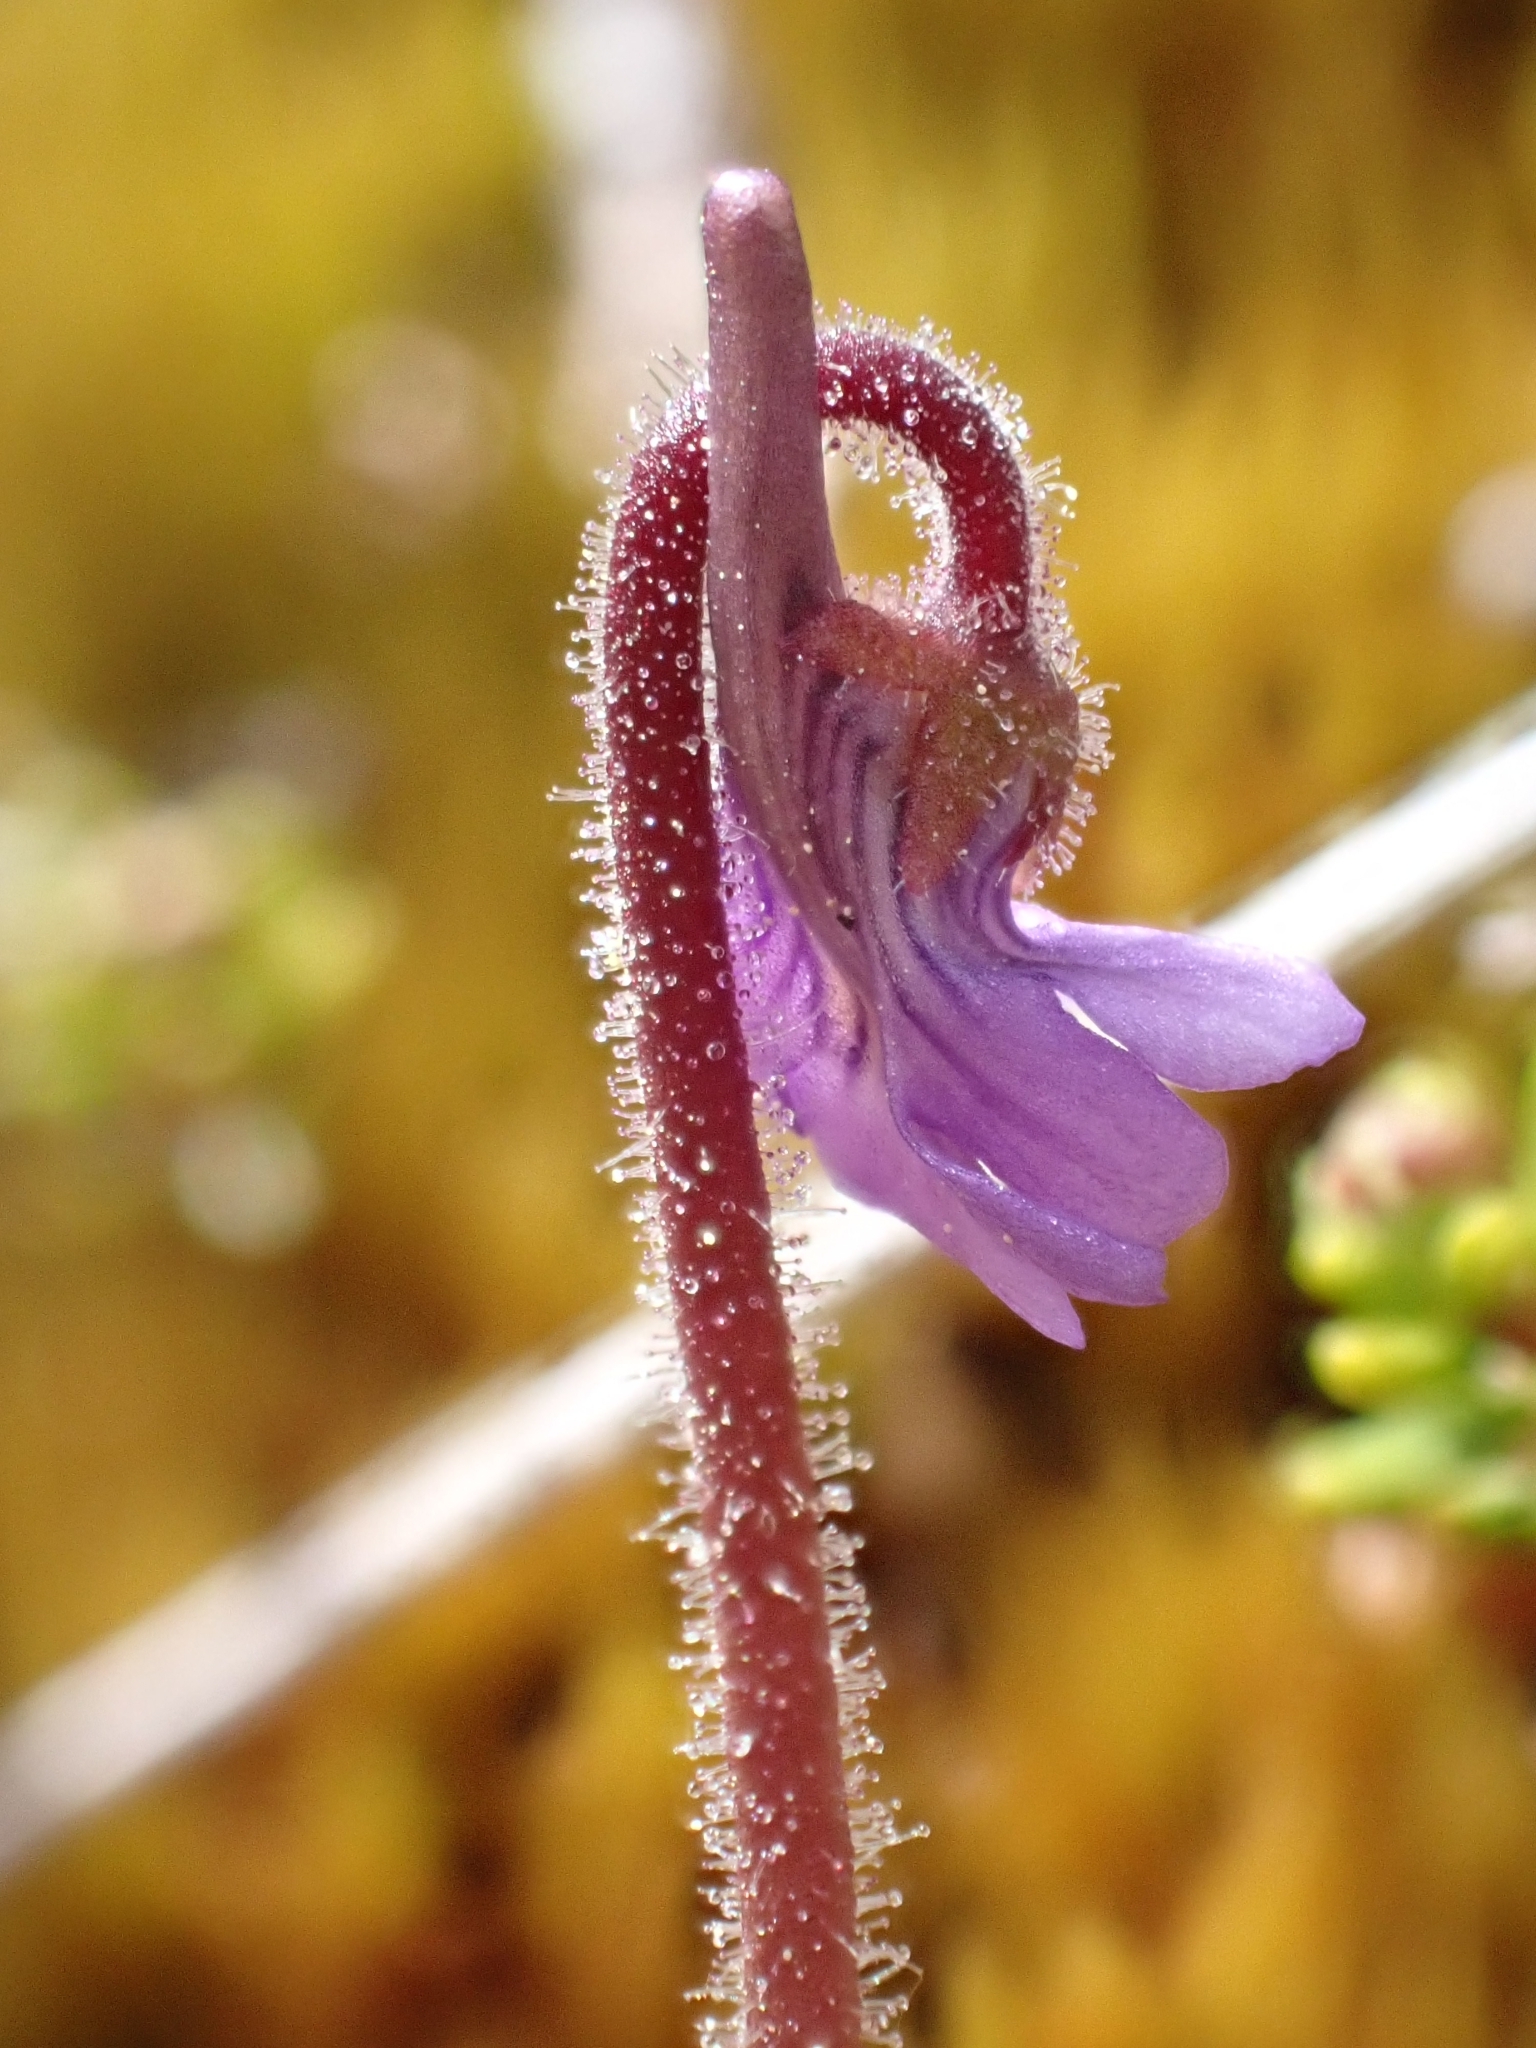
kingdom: Plantae
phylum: Tracheophyta
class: Magnoliopsida
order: Lamiales
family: Lentibulariaceae
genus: Pinguicula
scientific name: Pinguicula villosa
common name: Hairy butterwort
